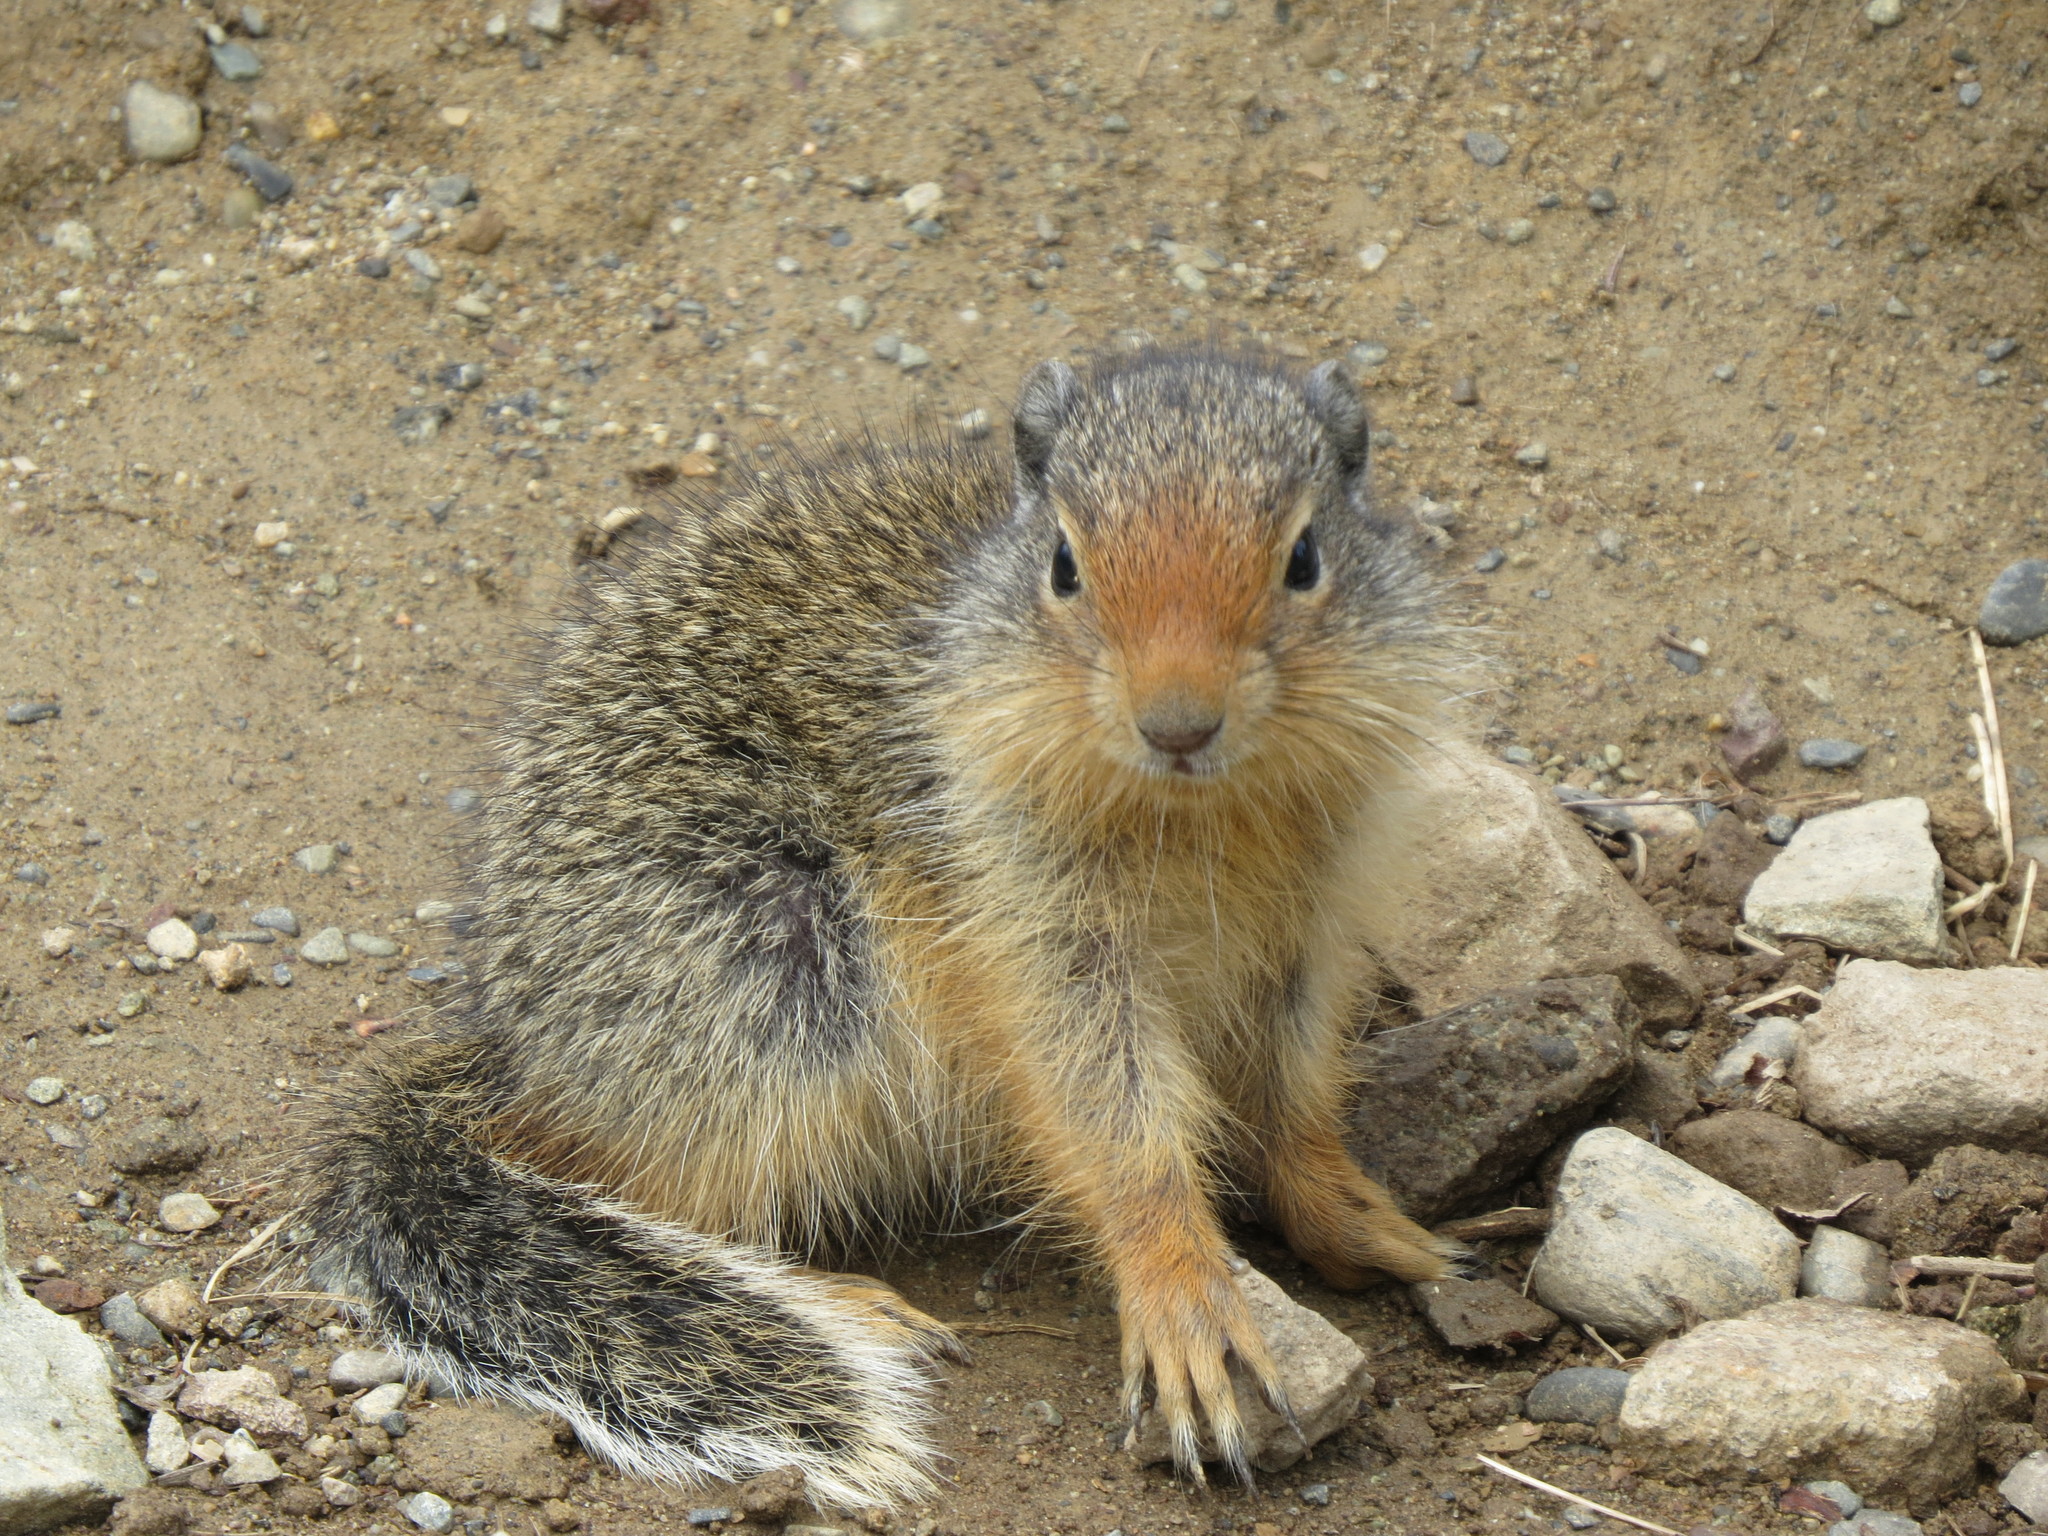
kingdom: Animalia
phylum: Chordata
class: Mammalia
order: Rodentia
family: Sciuridae
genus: Urocitellus
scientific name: Urocitellus columbianus
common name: Columbian ground squirrel
